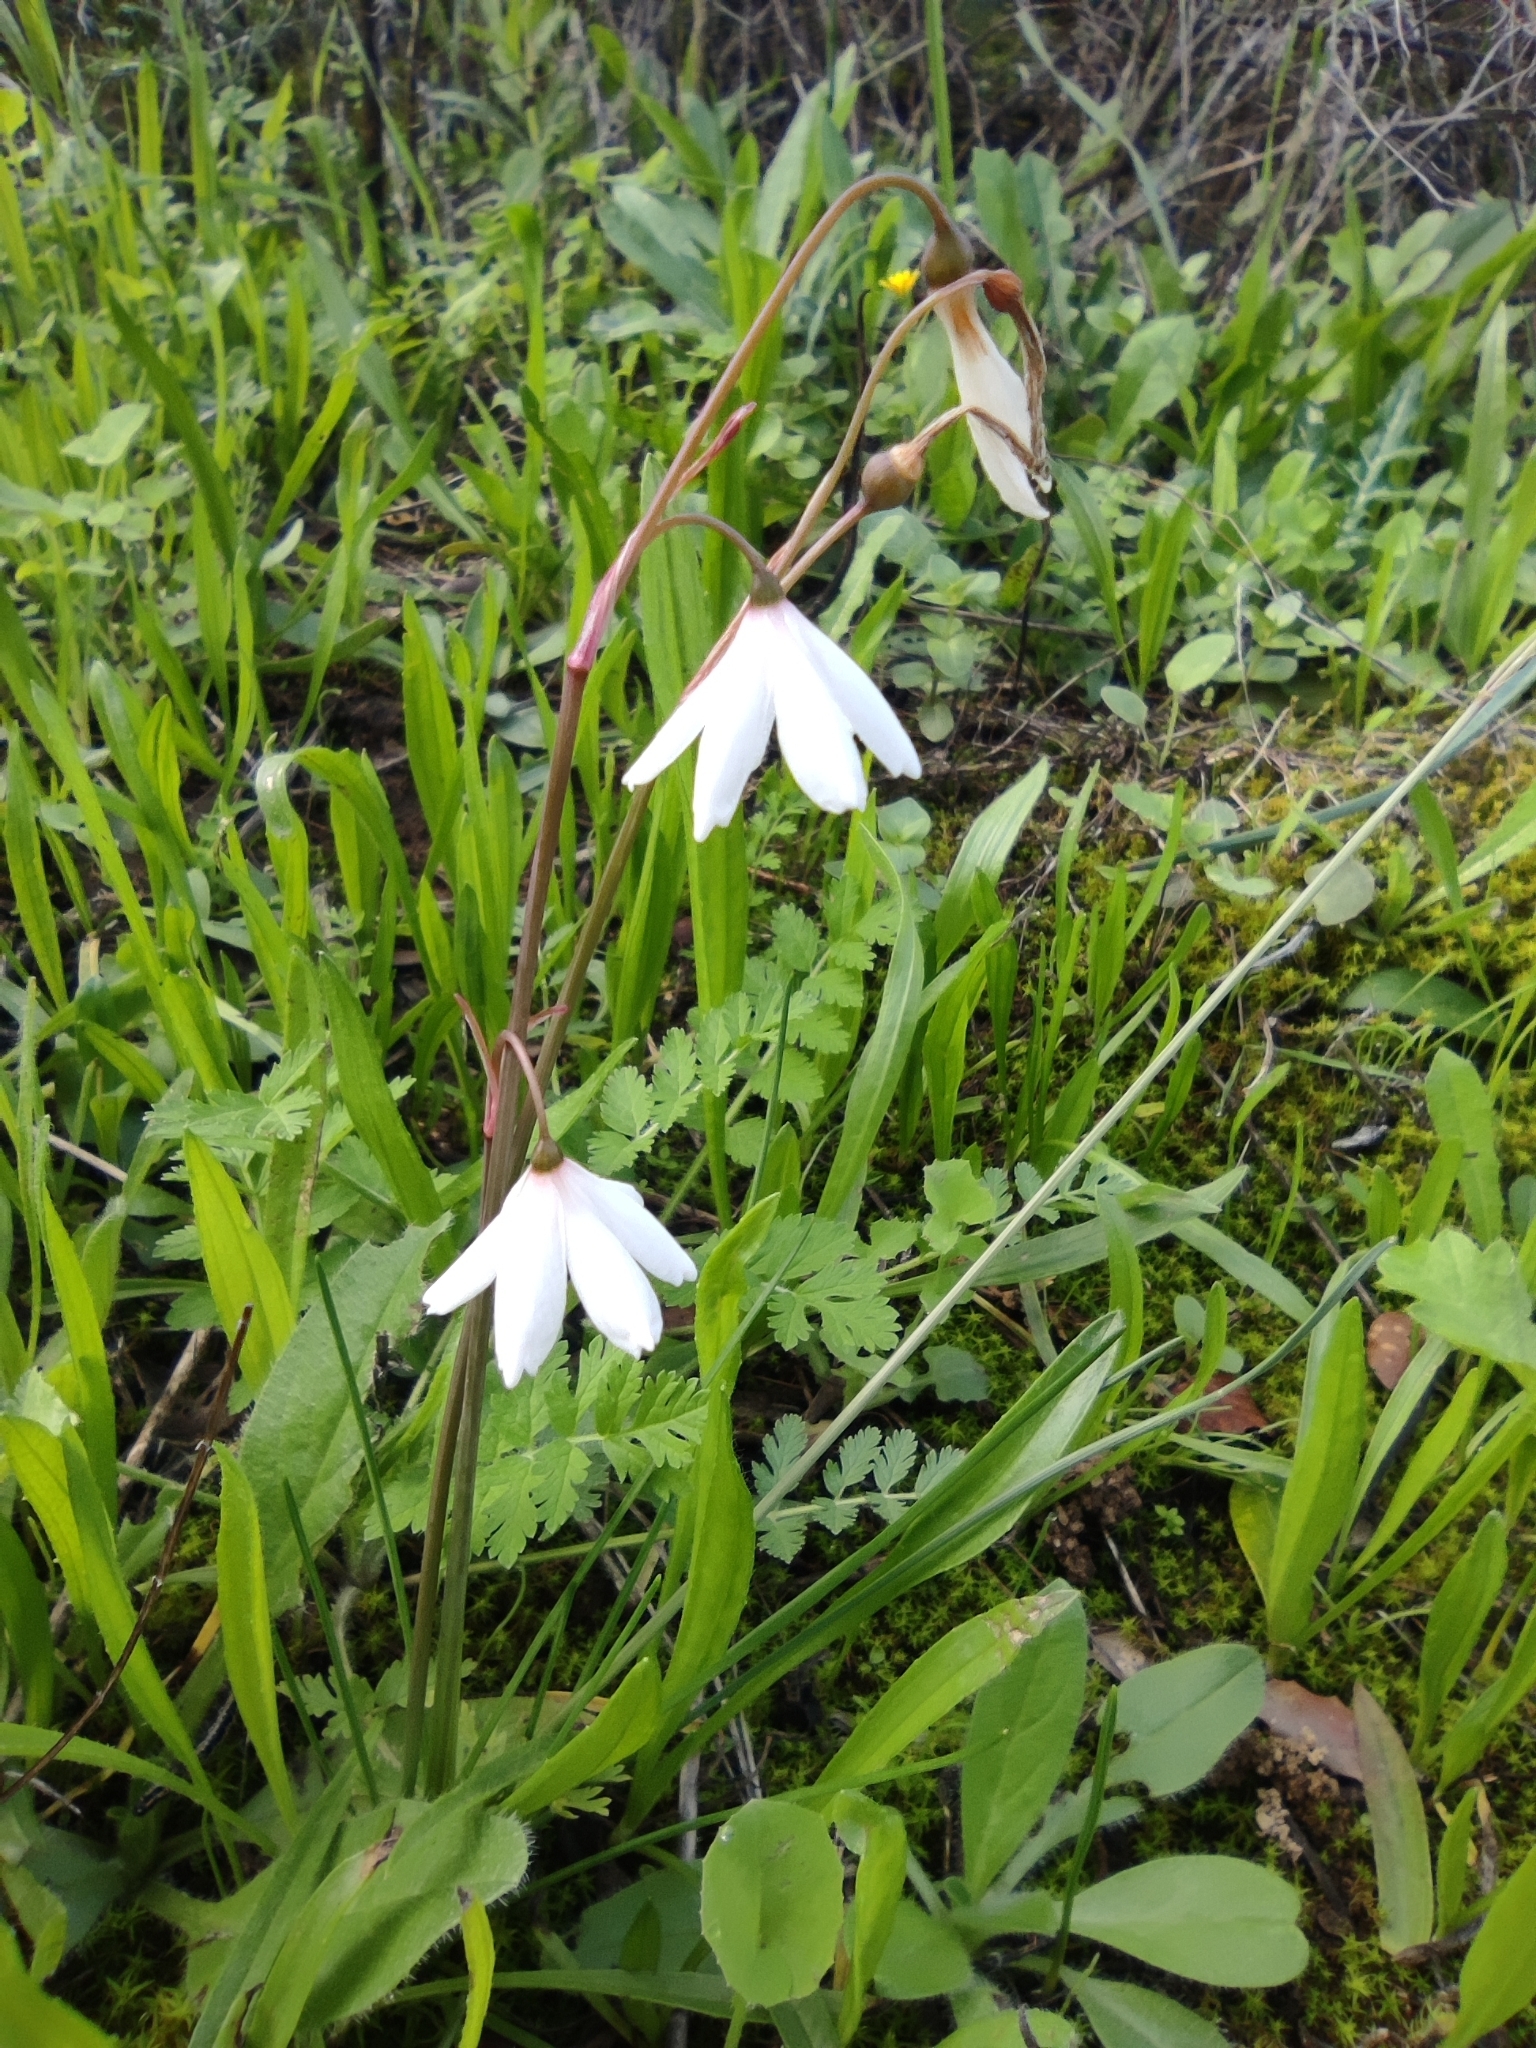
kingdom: Plantae
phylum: Tracheophyta
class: Liliopsida
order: Asparagales
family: Amaryllidaceae
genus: Acis
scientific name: Acis autumnalis
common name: Autumn snowflake
